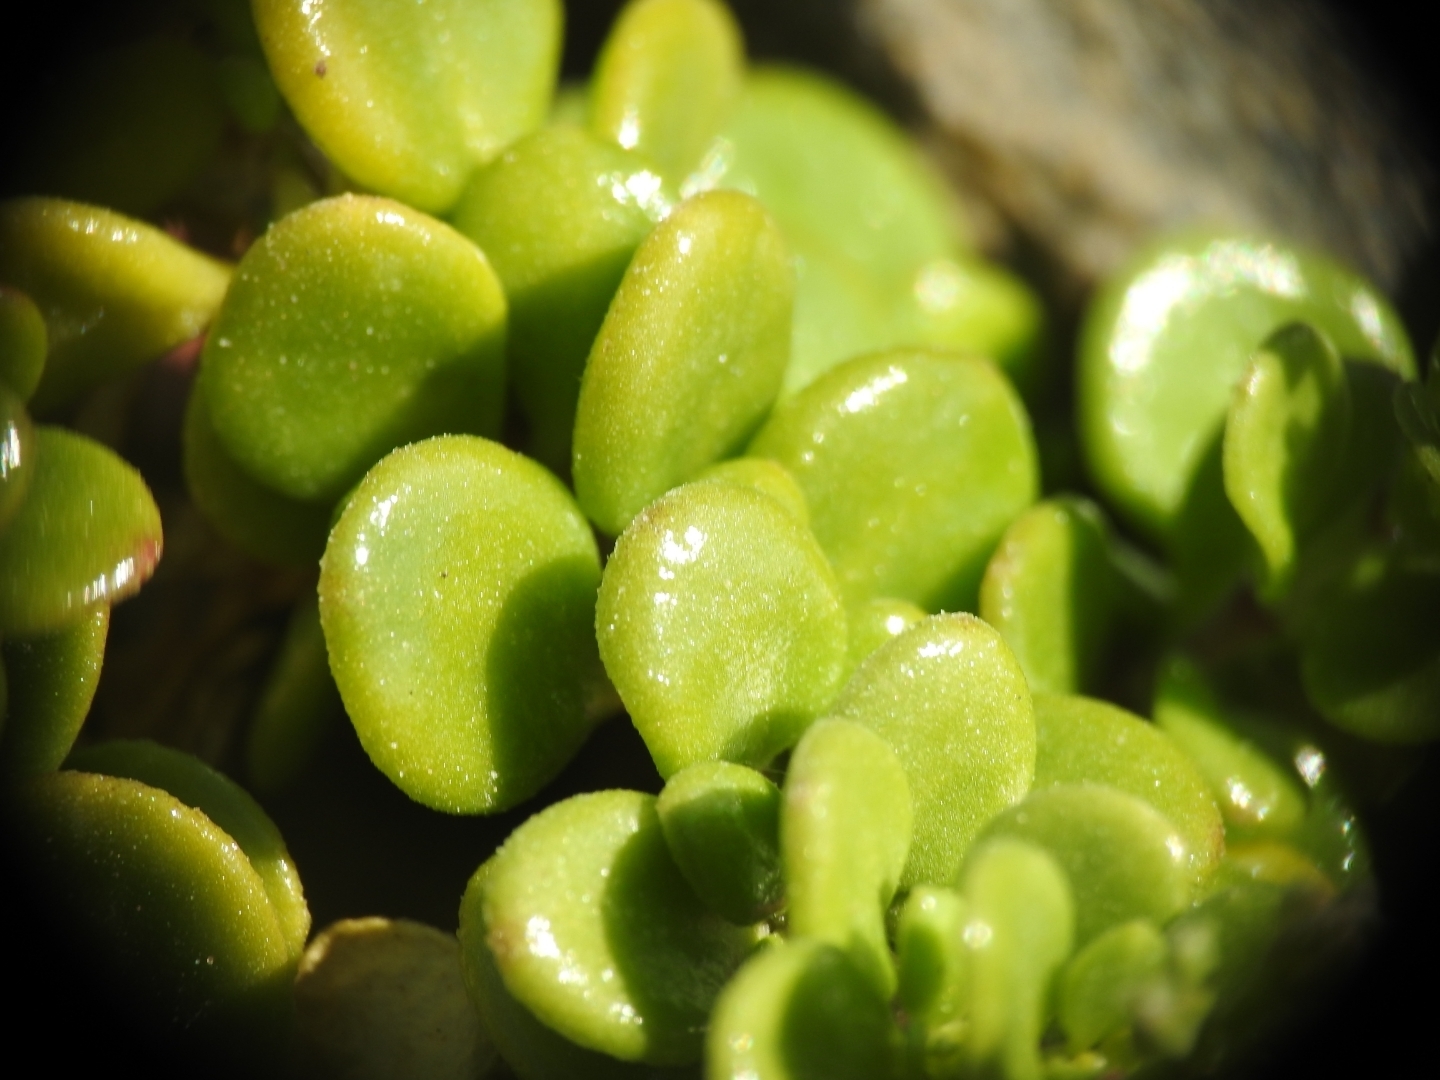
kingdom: Plantae
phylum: Tracheophyta
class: Magnoliopsida
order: Caryophyllales
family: Caryophyllaceae
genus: Polycarpon
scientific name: Polycarpon polycarpoides
